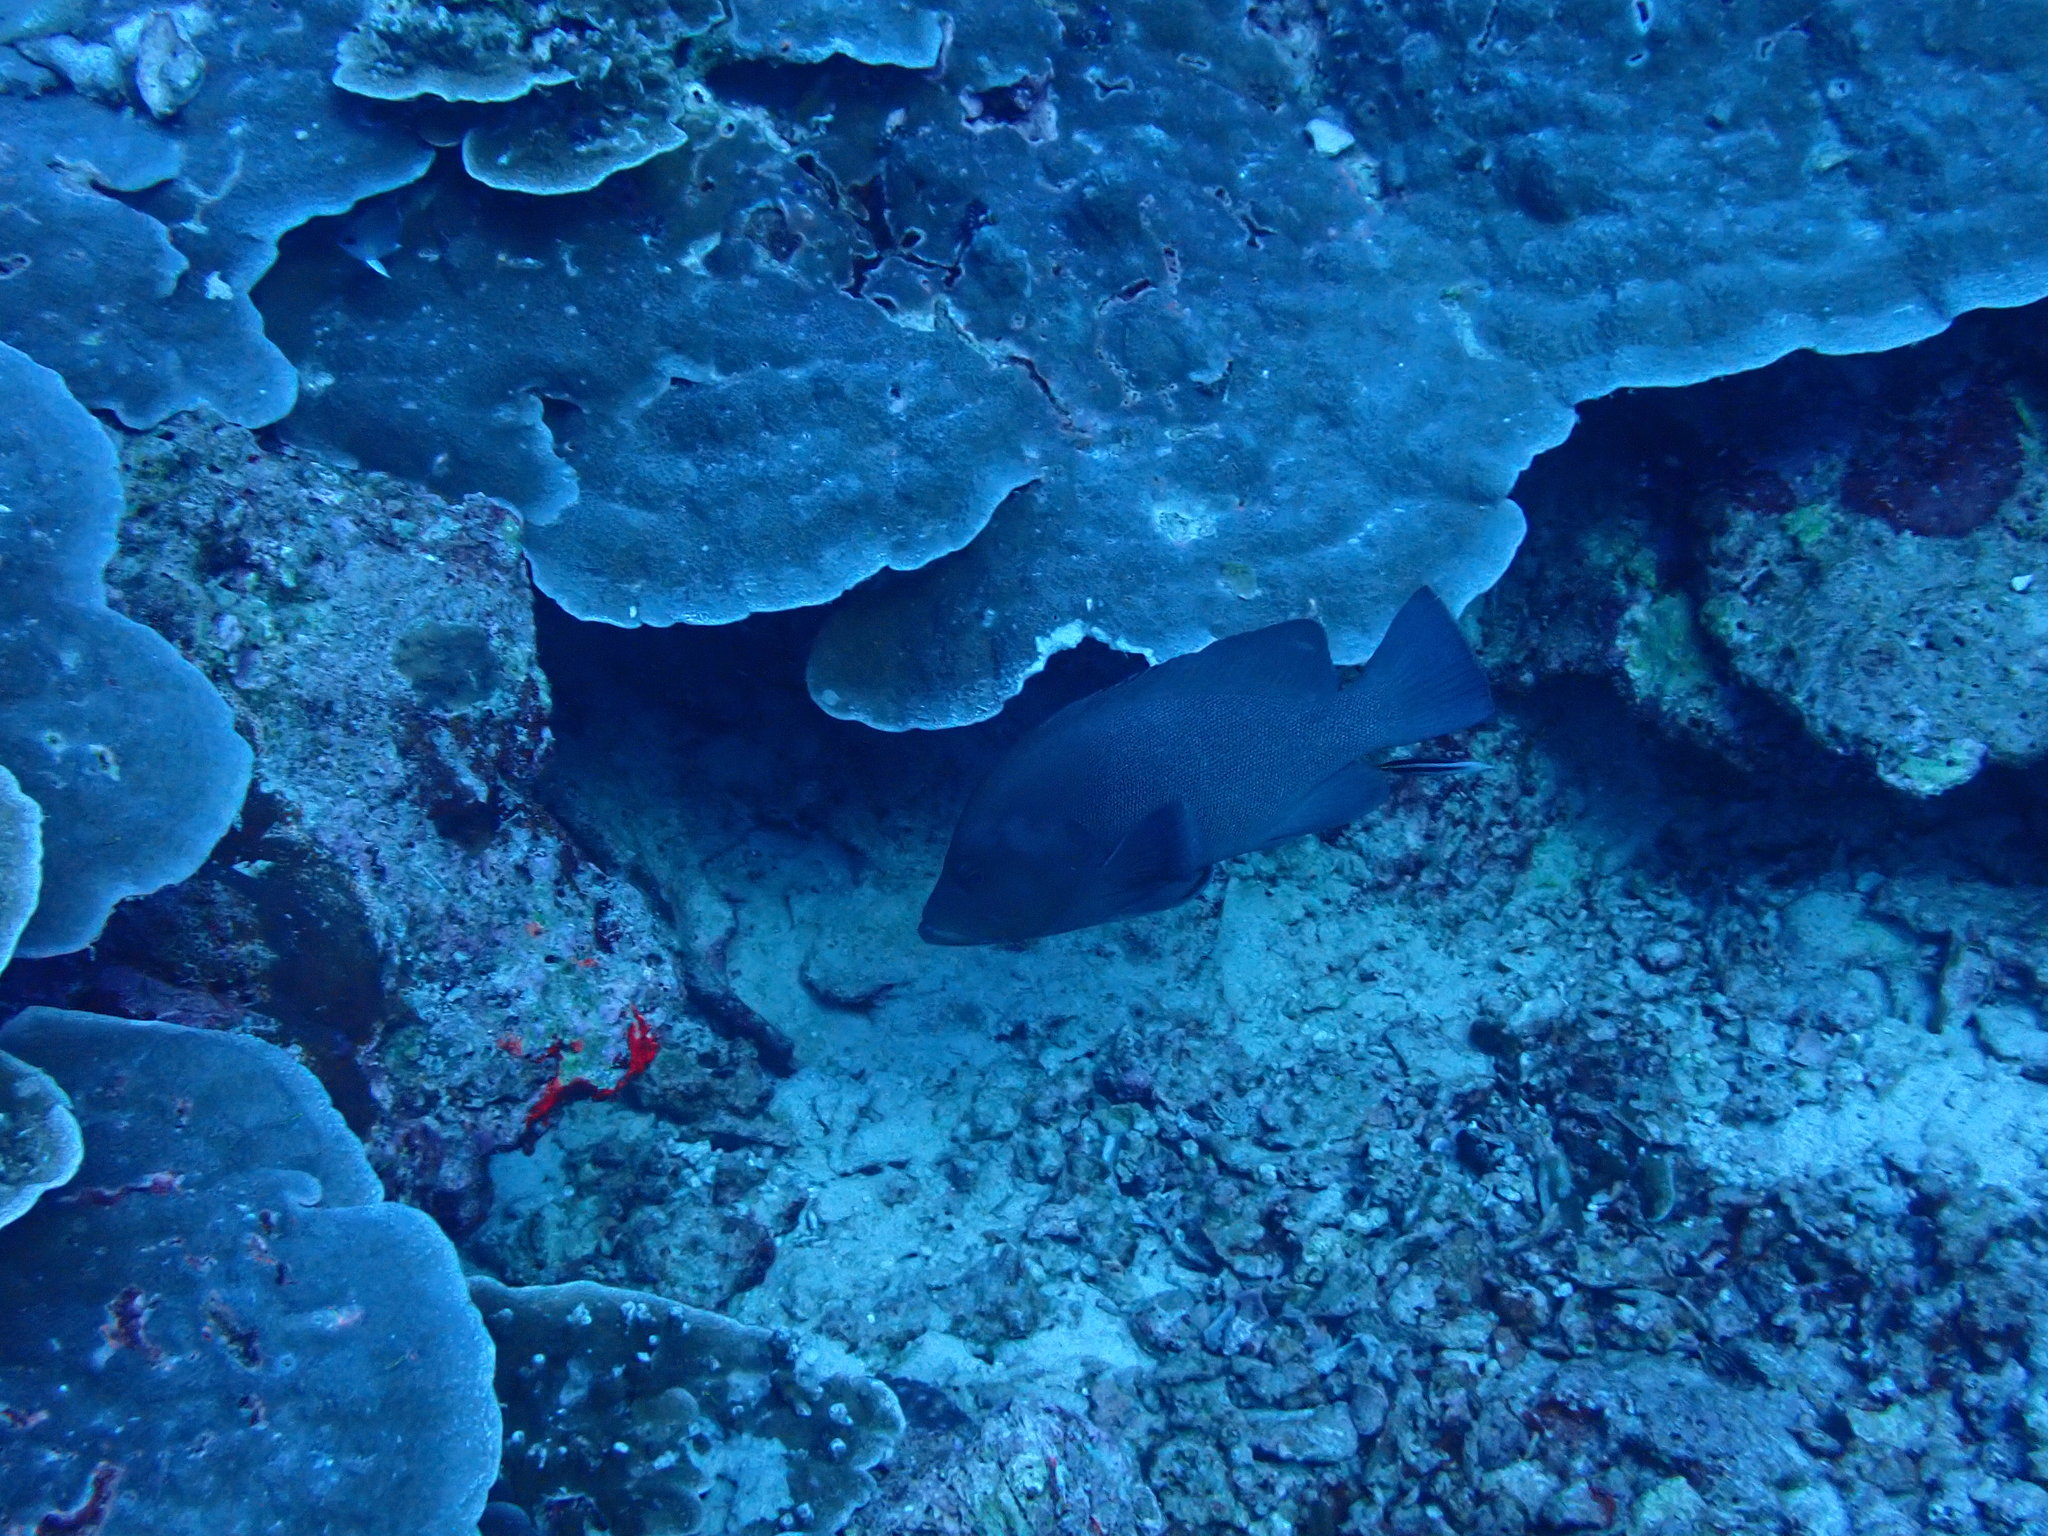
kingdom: Animalia
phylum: Chordata
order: Perciformes
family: Serranidae
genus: Aethaloperca
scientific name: Aethaloperca rogaa
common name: Redmouth grouper
